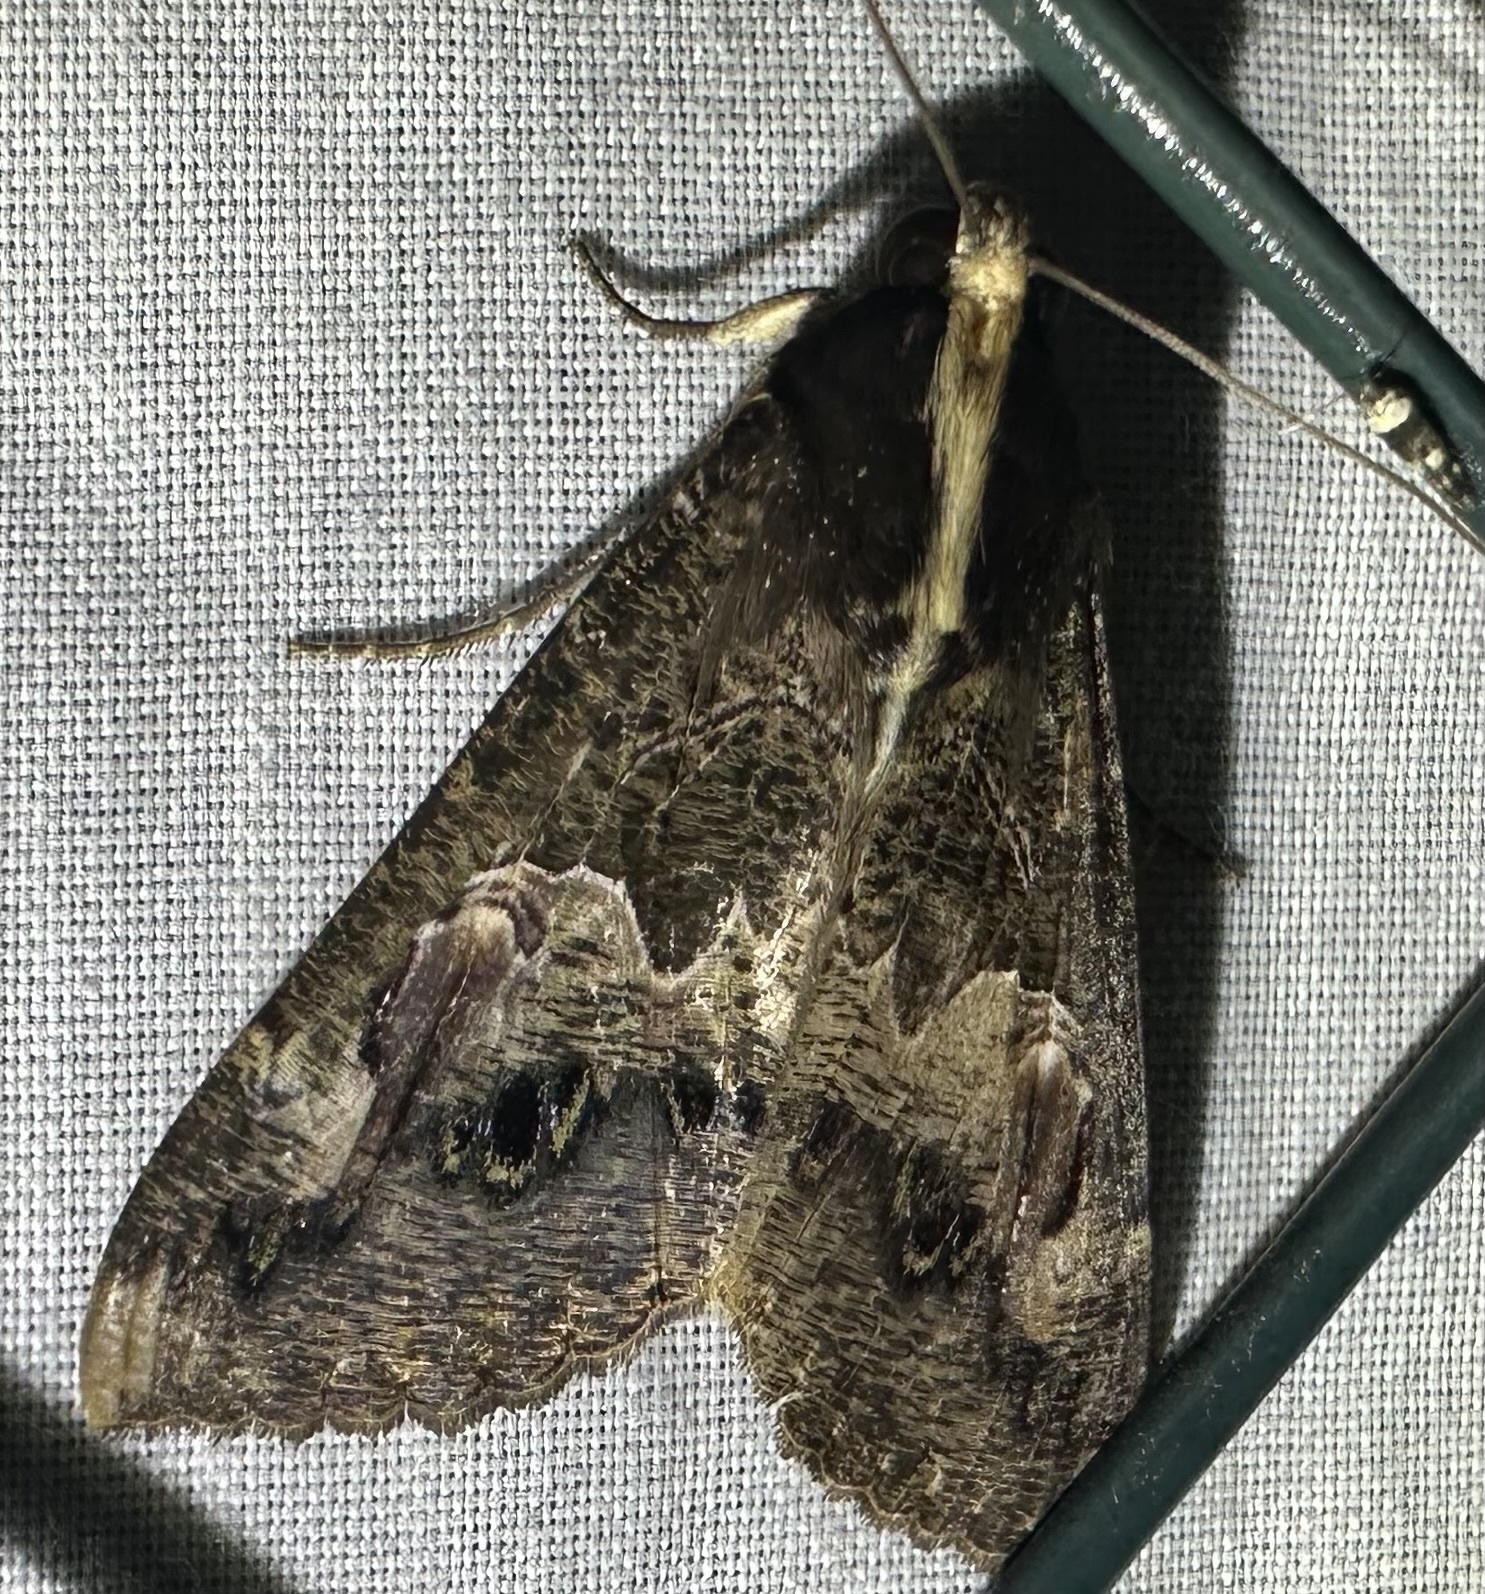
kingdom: Animalia
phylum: Arthropoda
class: Insecta
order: Lepidoptera
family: Erebidae
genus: Sphingomorpha
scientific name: Sphingomorpha chlorea
